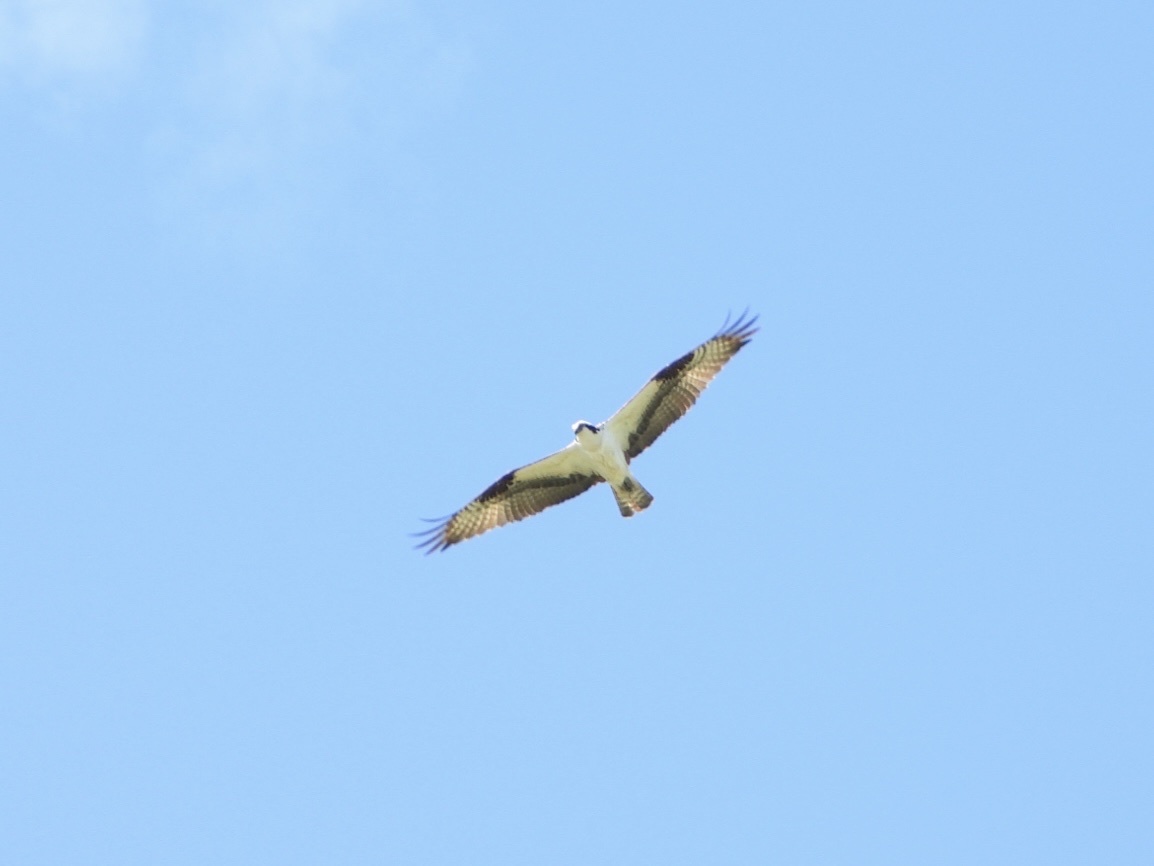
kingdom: Animalia
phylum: Chordata
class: Aves
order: Accipitriformes
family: Pandionidae
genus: Pandion
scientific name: Pandion haliaetus
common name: Osprey
